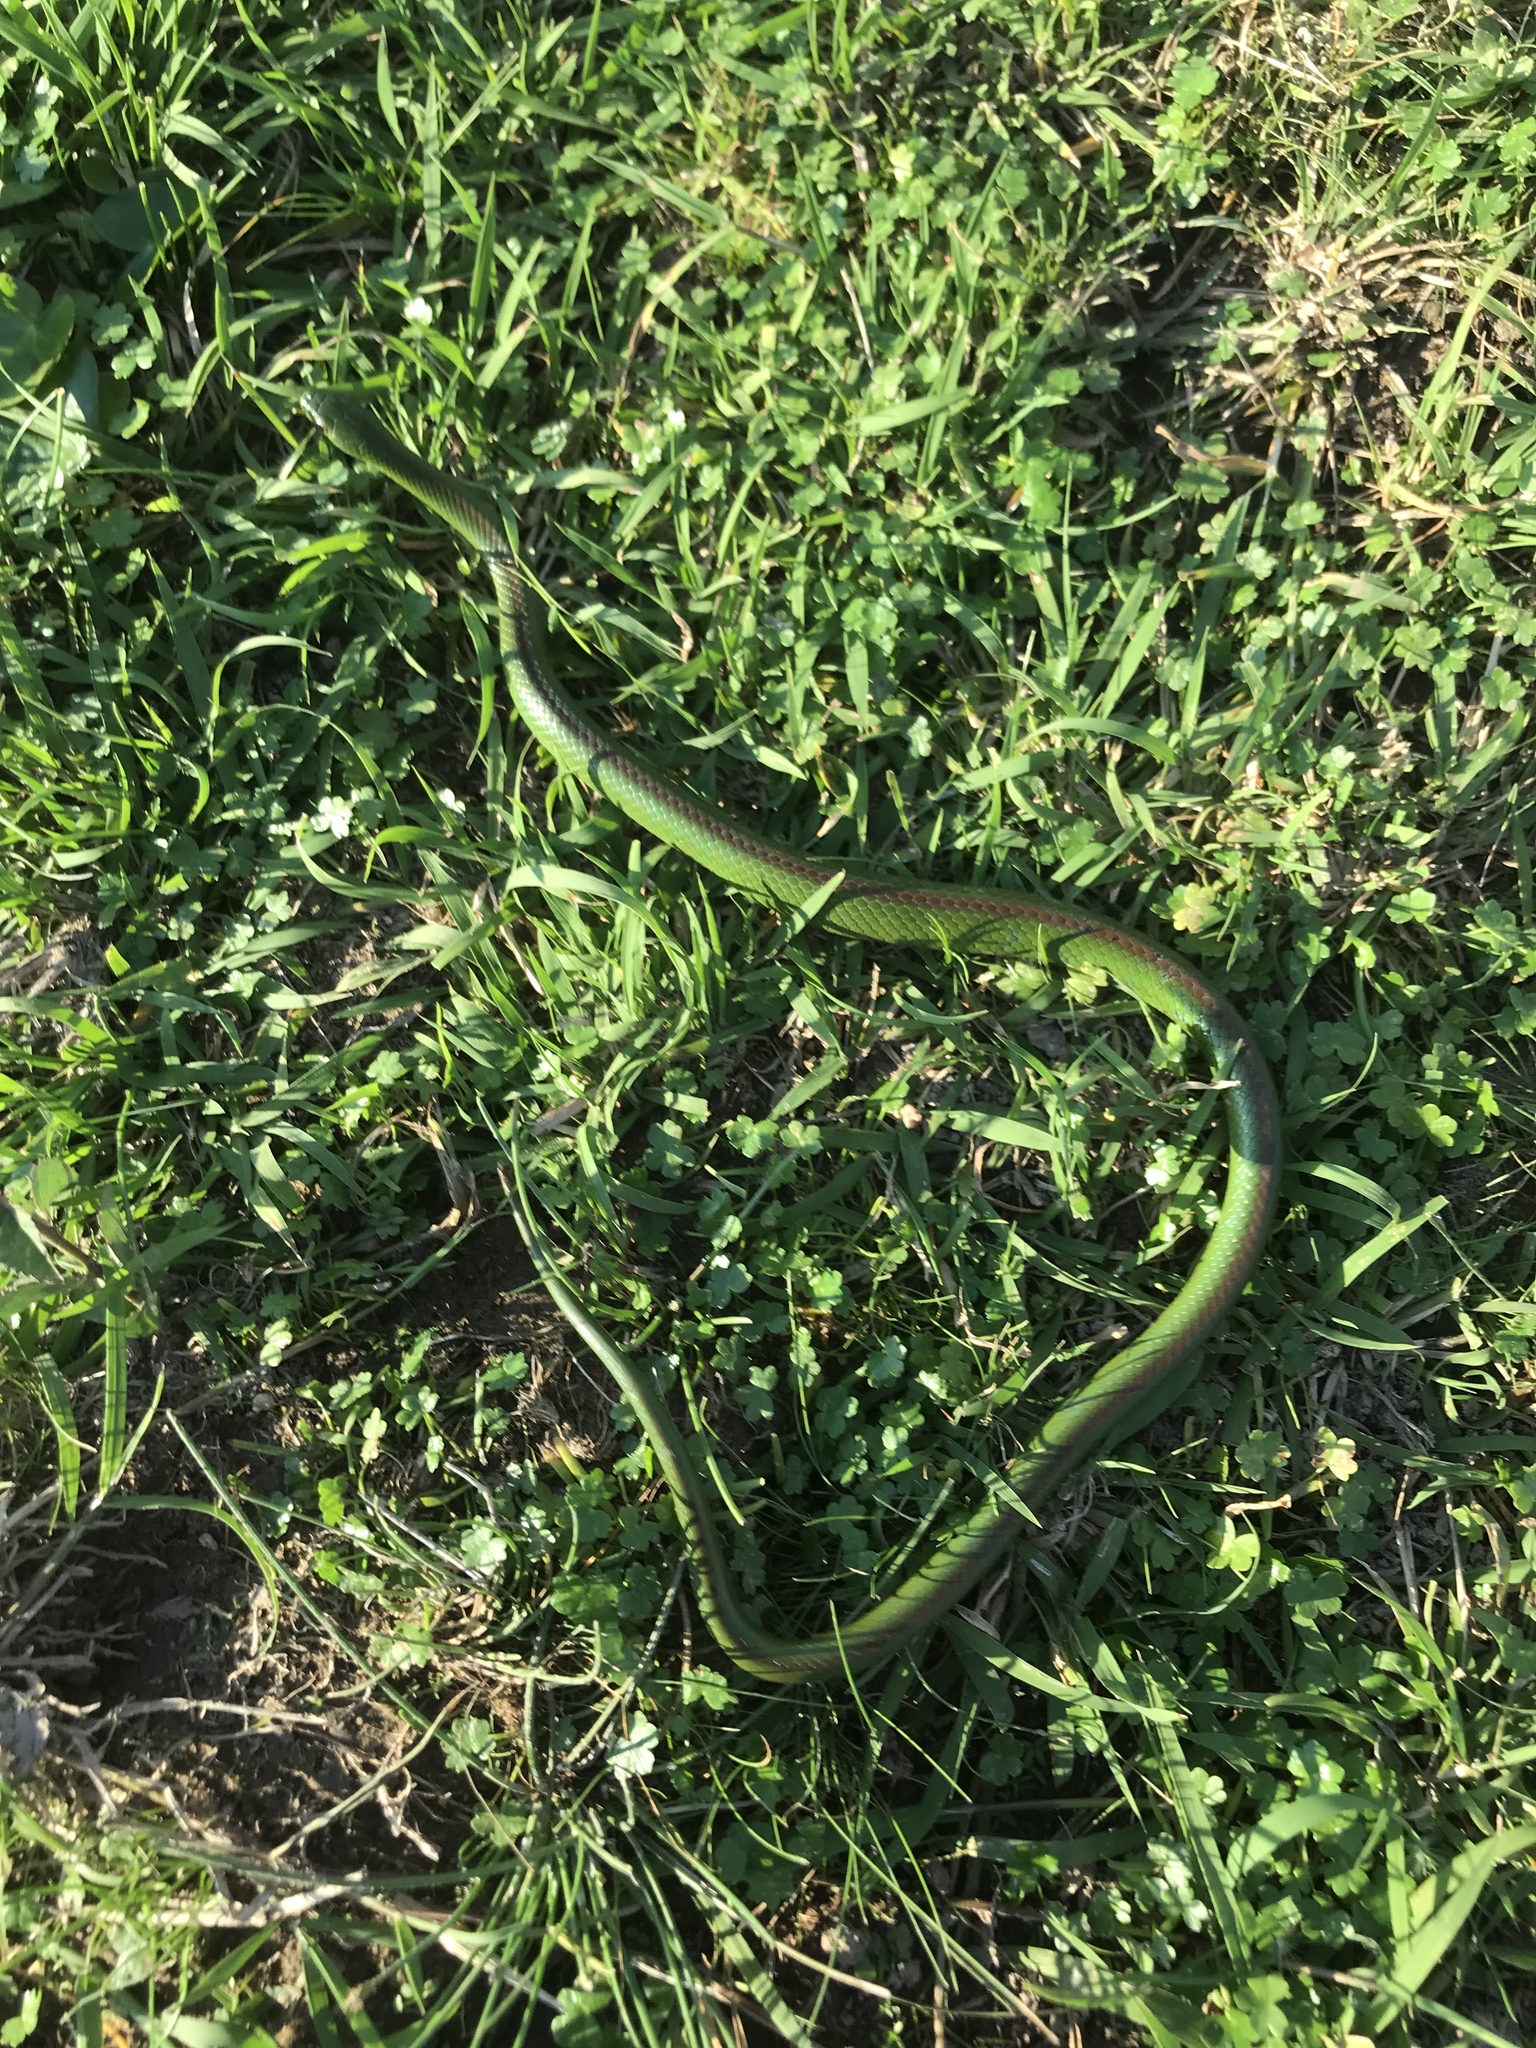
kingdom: Animalia
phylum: Chordata
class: Squamata
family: Colubridae
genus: Erythrolamprus
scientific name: Erythrolamprus jaegeri
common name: Jaeger's ground snake
